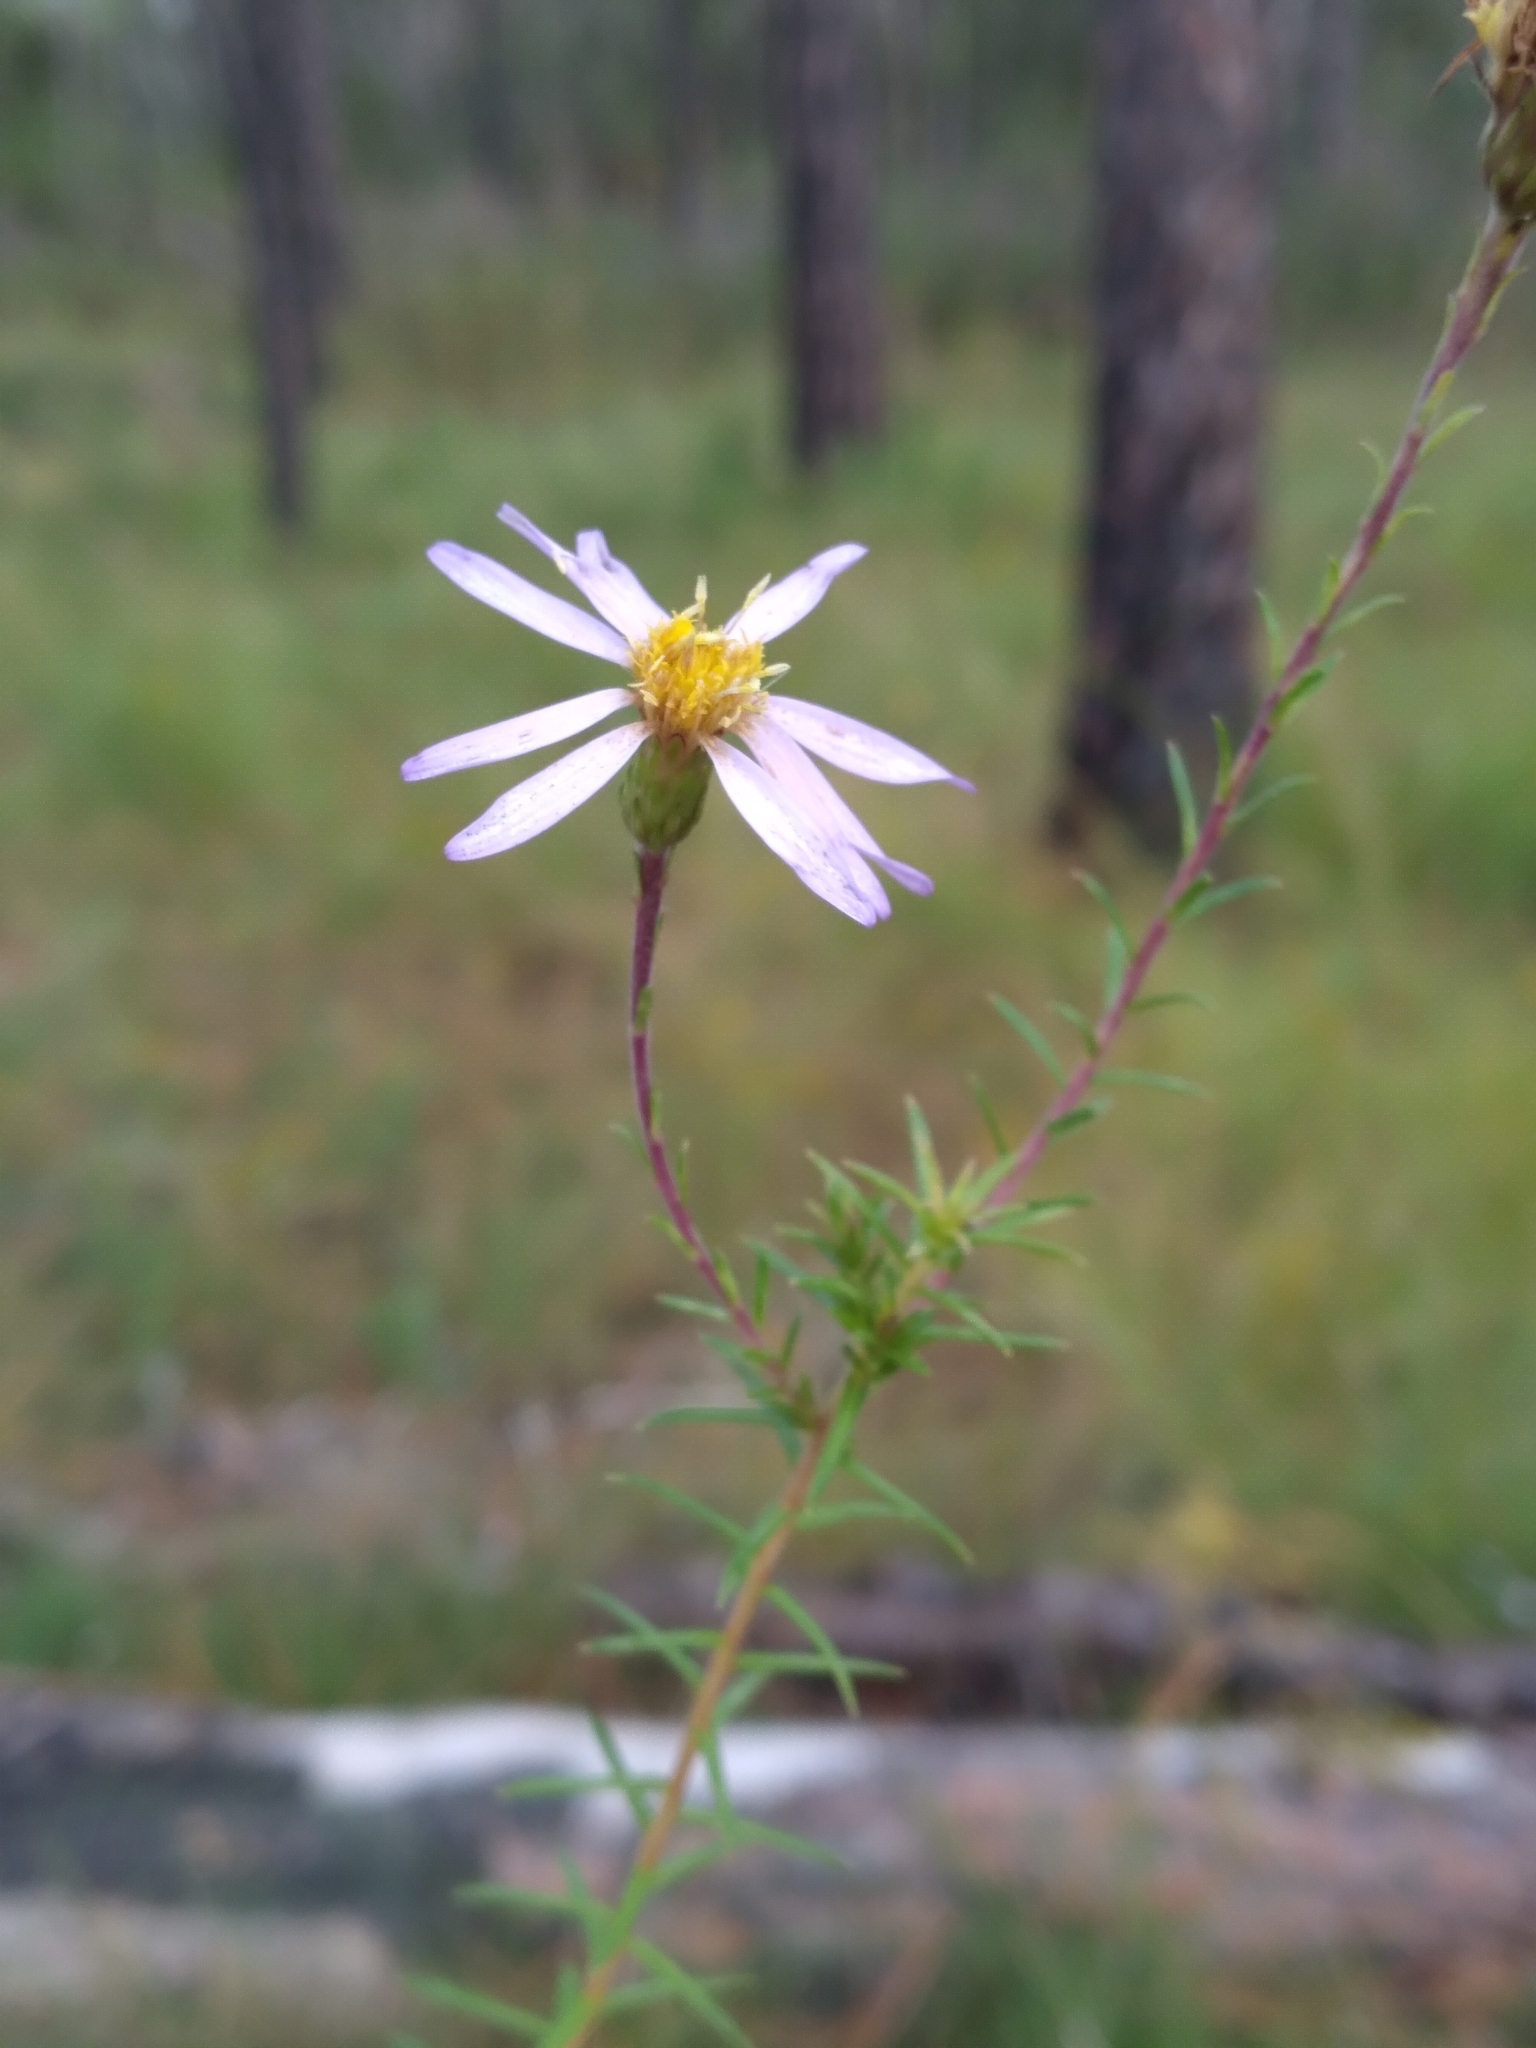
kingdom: Plantae
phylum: Tracheophyta
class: Magnoliopsida
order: Asterales
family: Asteraceae
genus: Ionactis
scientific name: Ionactis repens
